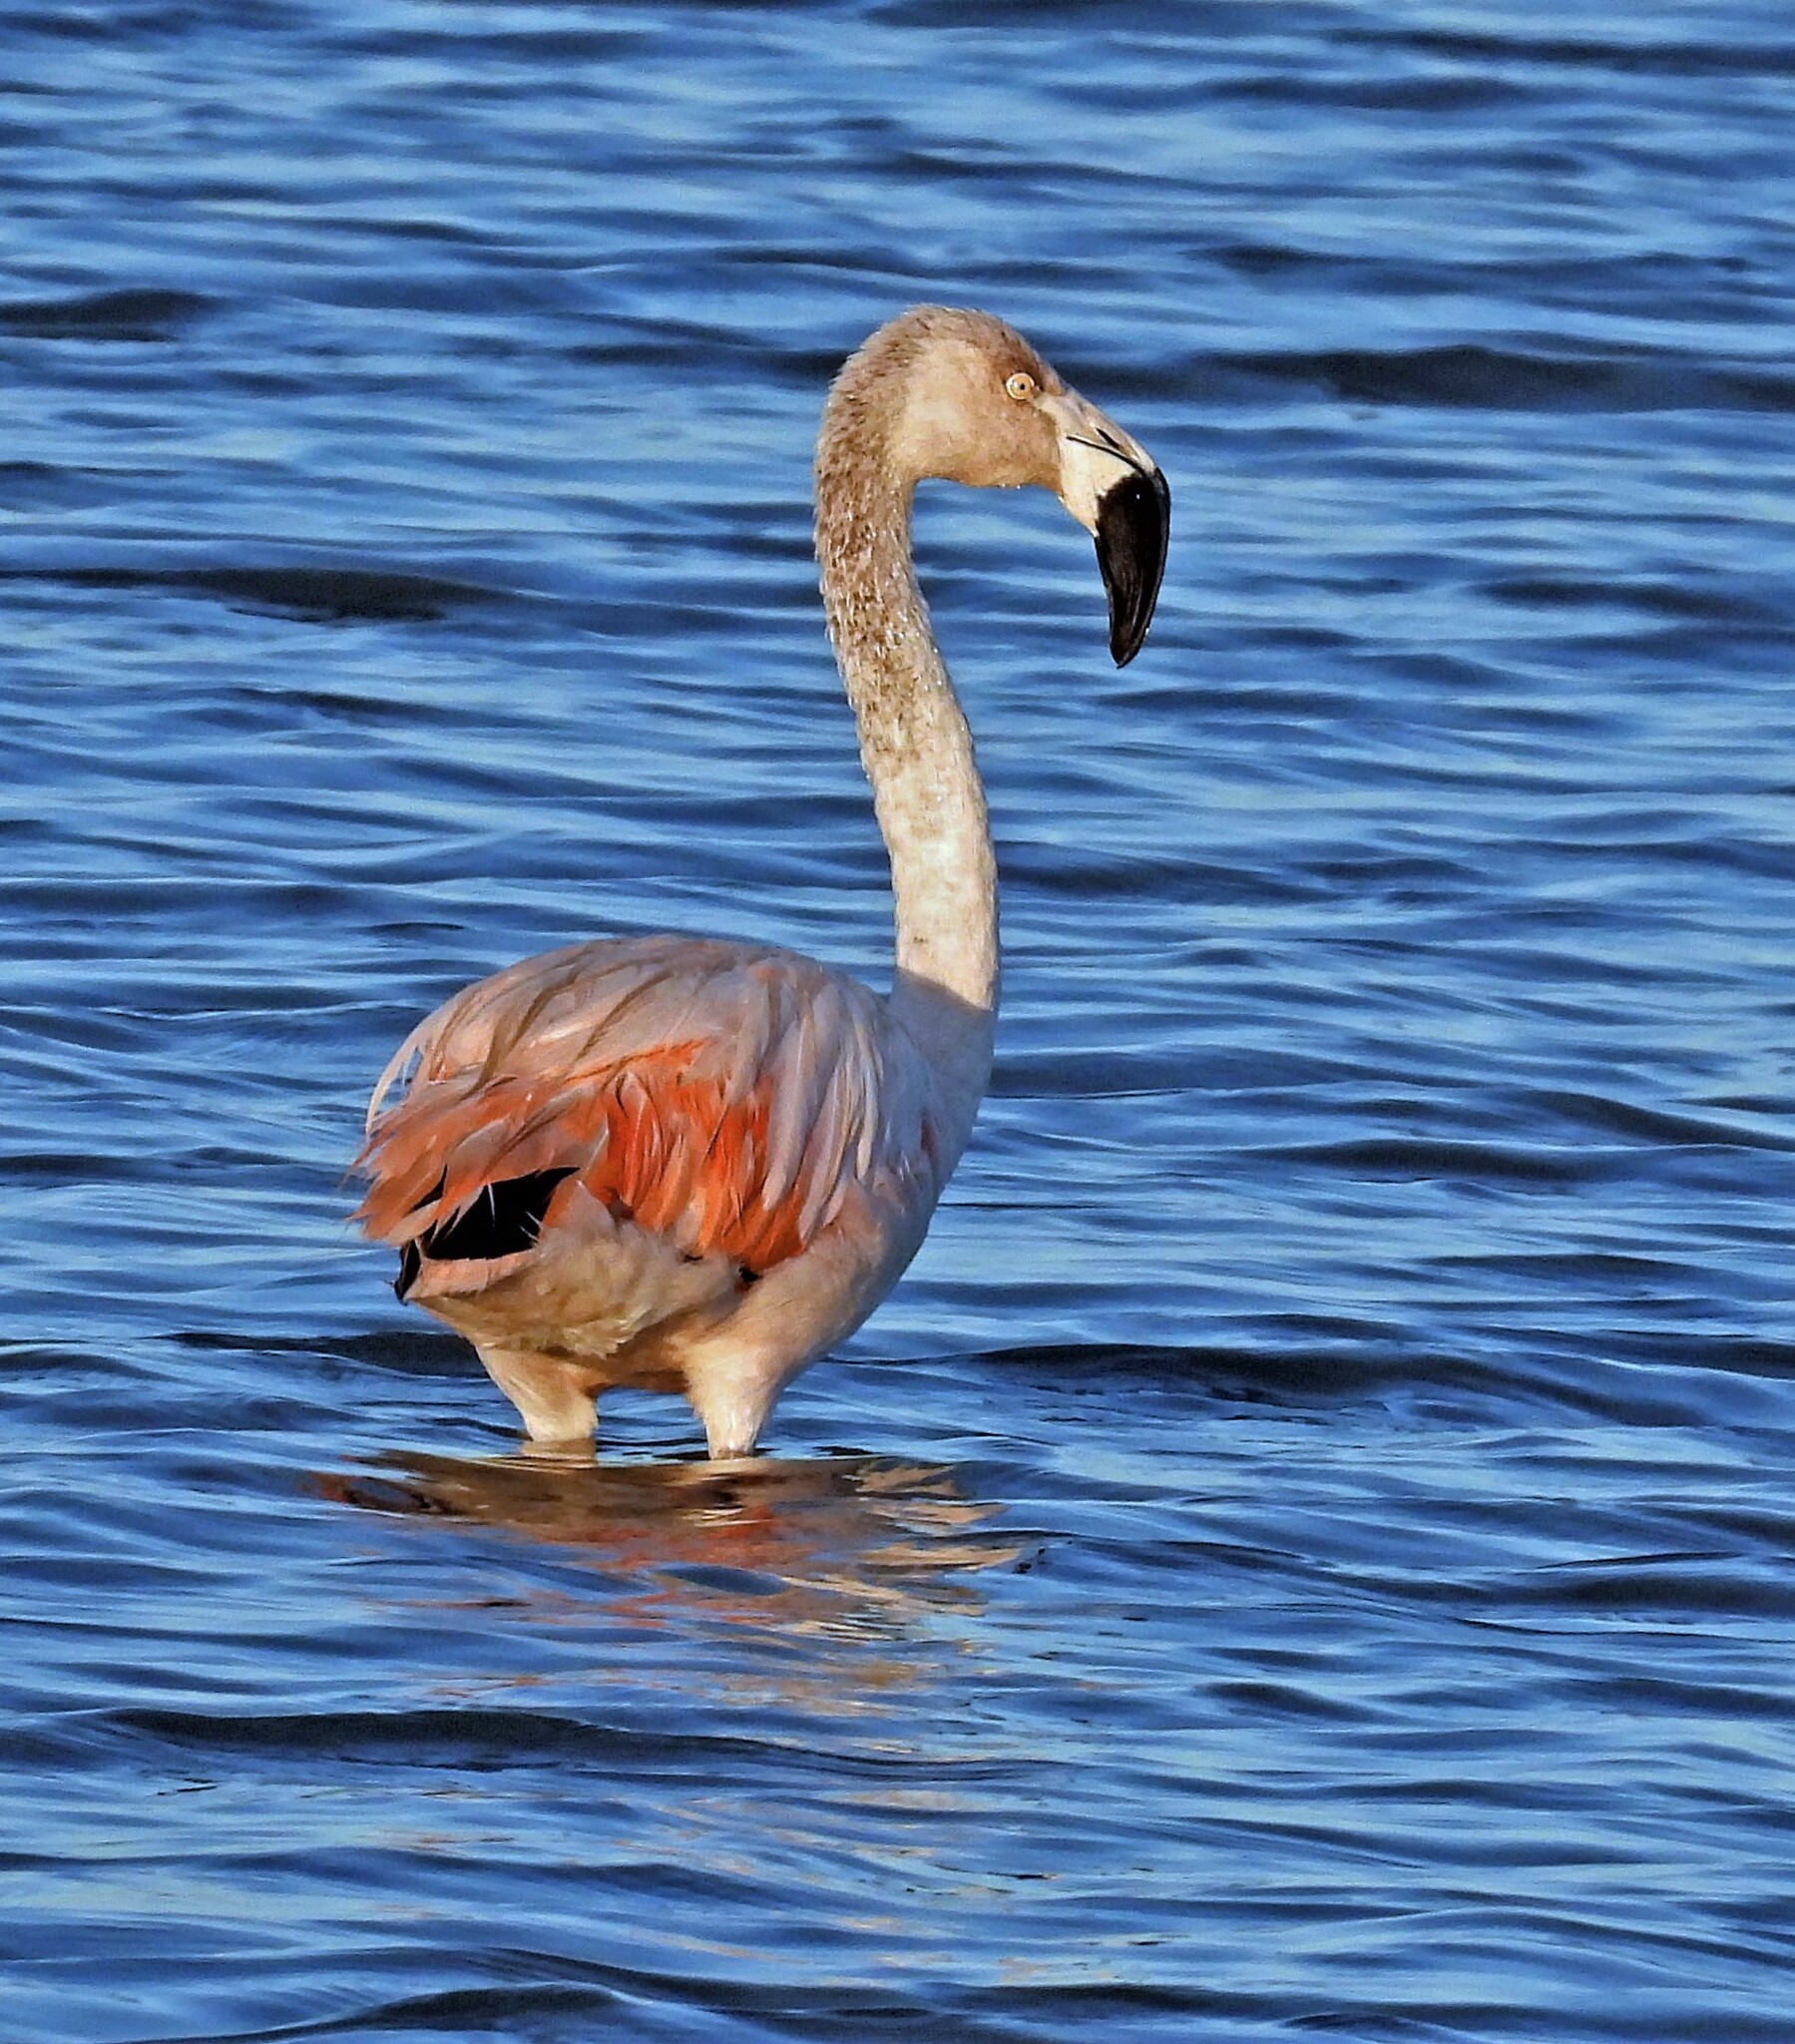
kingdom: Animalia
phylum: Chordata
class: Aves
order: Phoenicopteriformes
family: Phoenicopteridae
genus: Phoenicopterus
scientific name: Phoenicopterus chilensis
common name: Chilean flamingo
